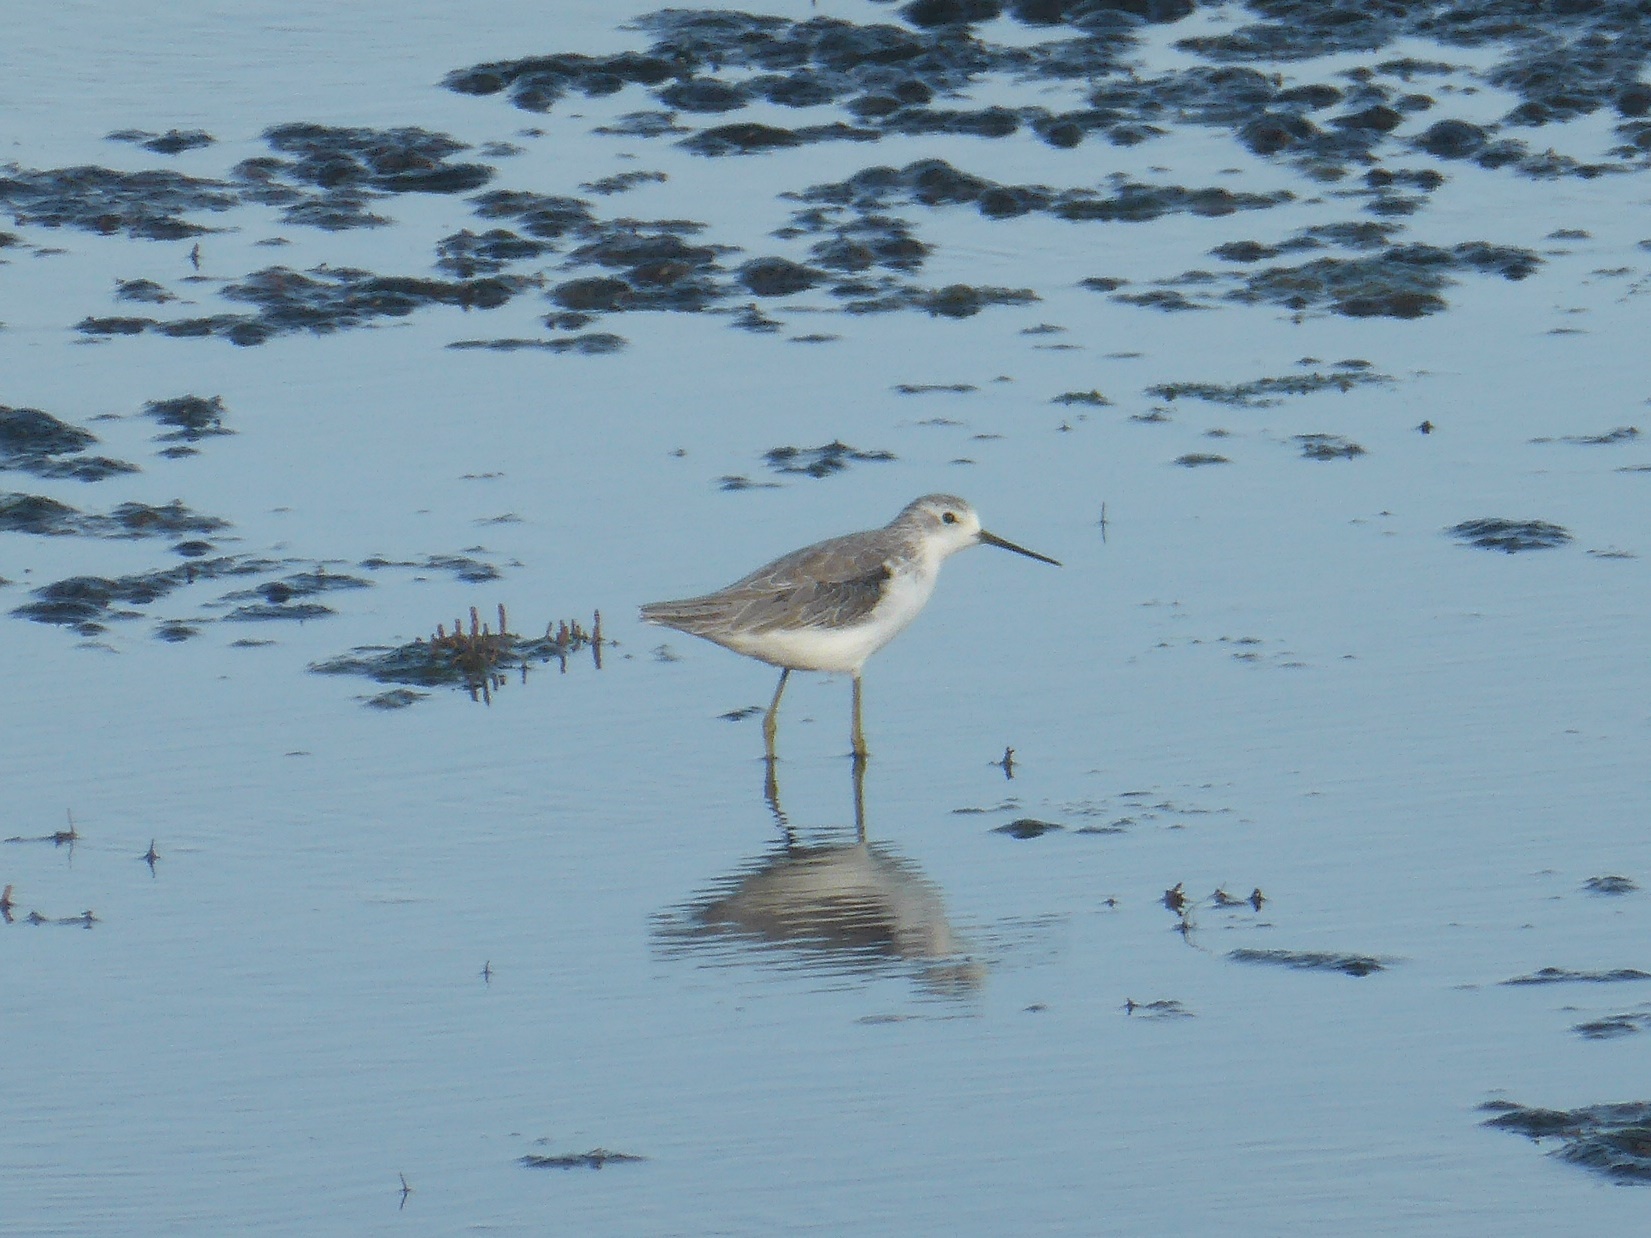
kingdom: Animalia
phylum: Chordata
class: Aves
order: Charadriiformes
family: Scolopacidae
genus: Tringa
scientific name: Tringa stagnatilis
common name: Marsh sandpiper
